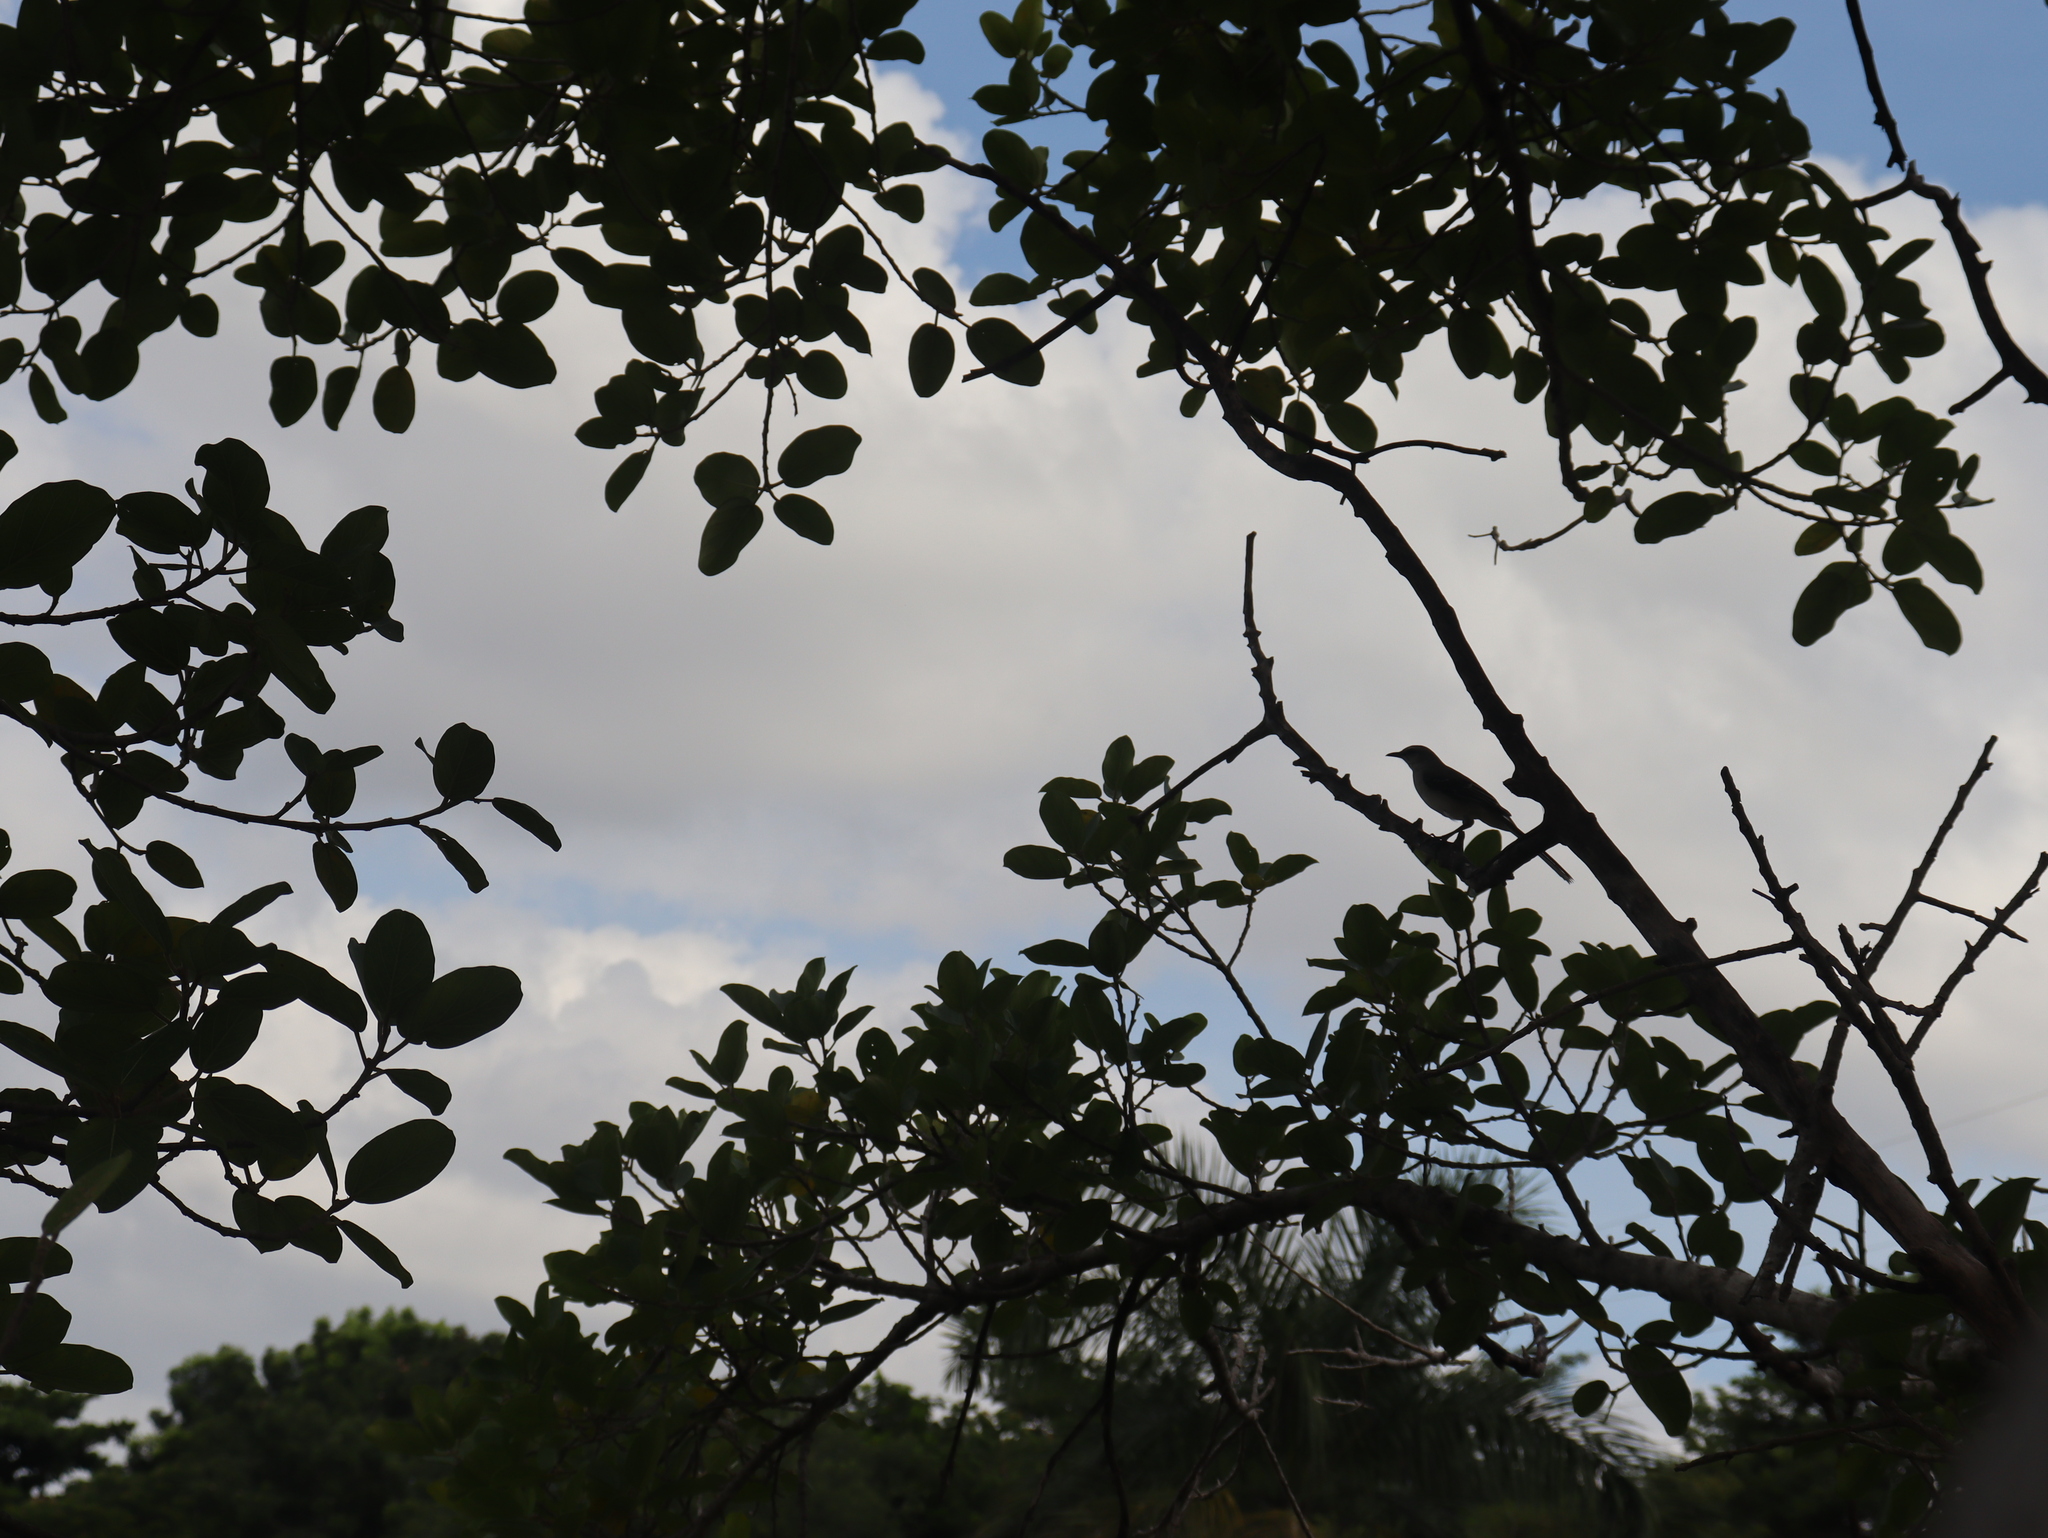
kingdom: Animalia
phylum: Chordata
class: Aves
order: Passeriformes
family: Mimidae
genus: Mimus
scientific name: Mimus gilvus
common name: Tropical mockingbird
